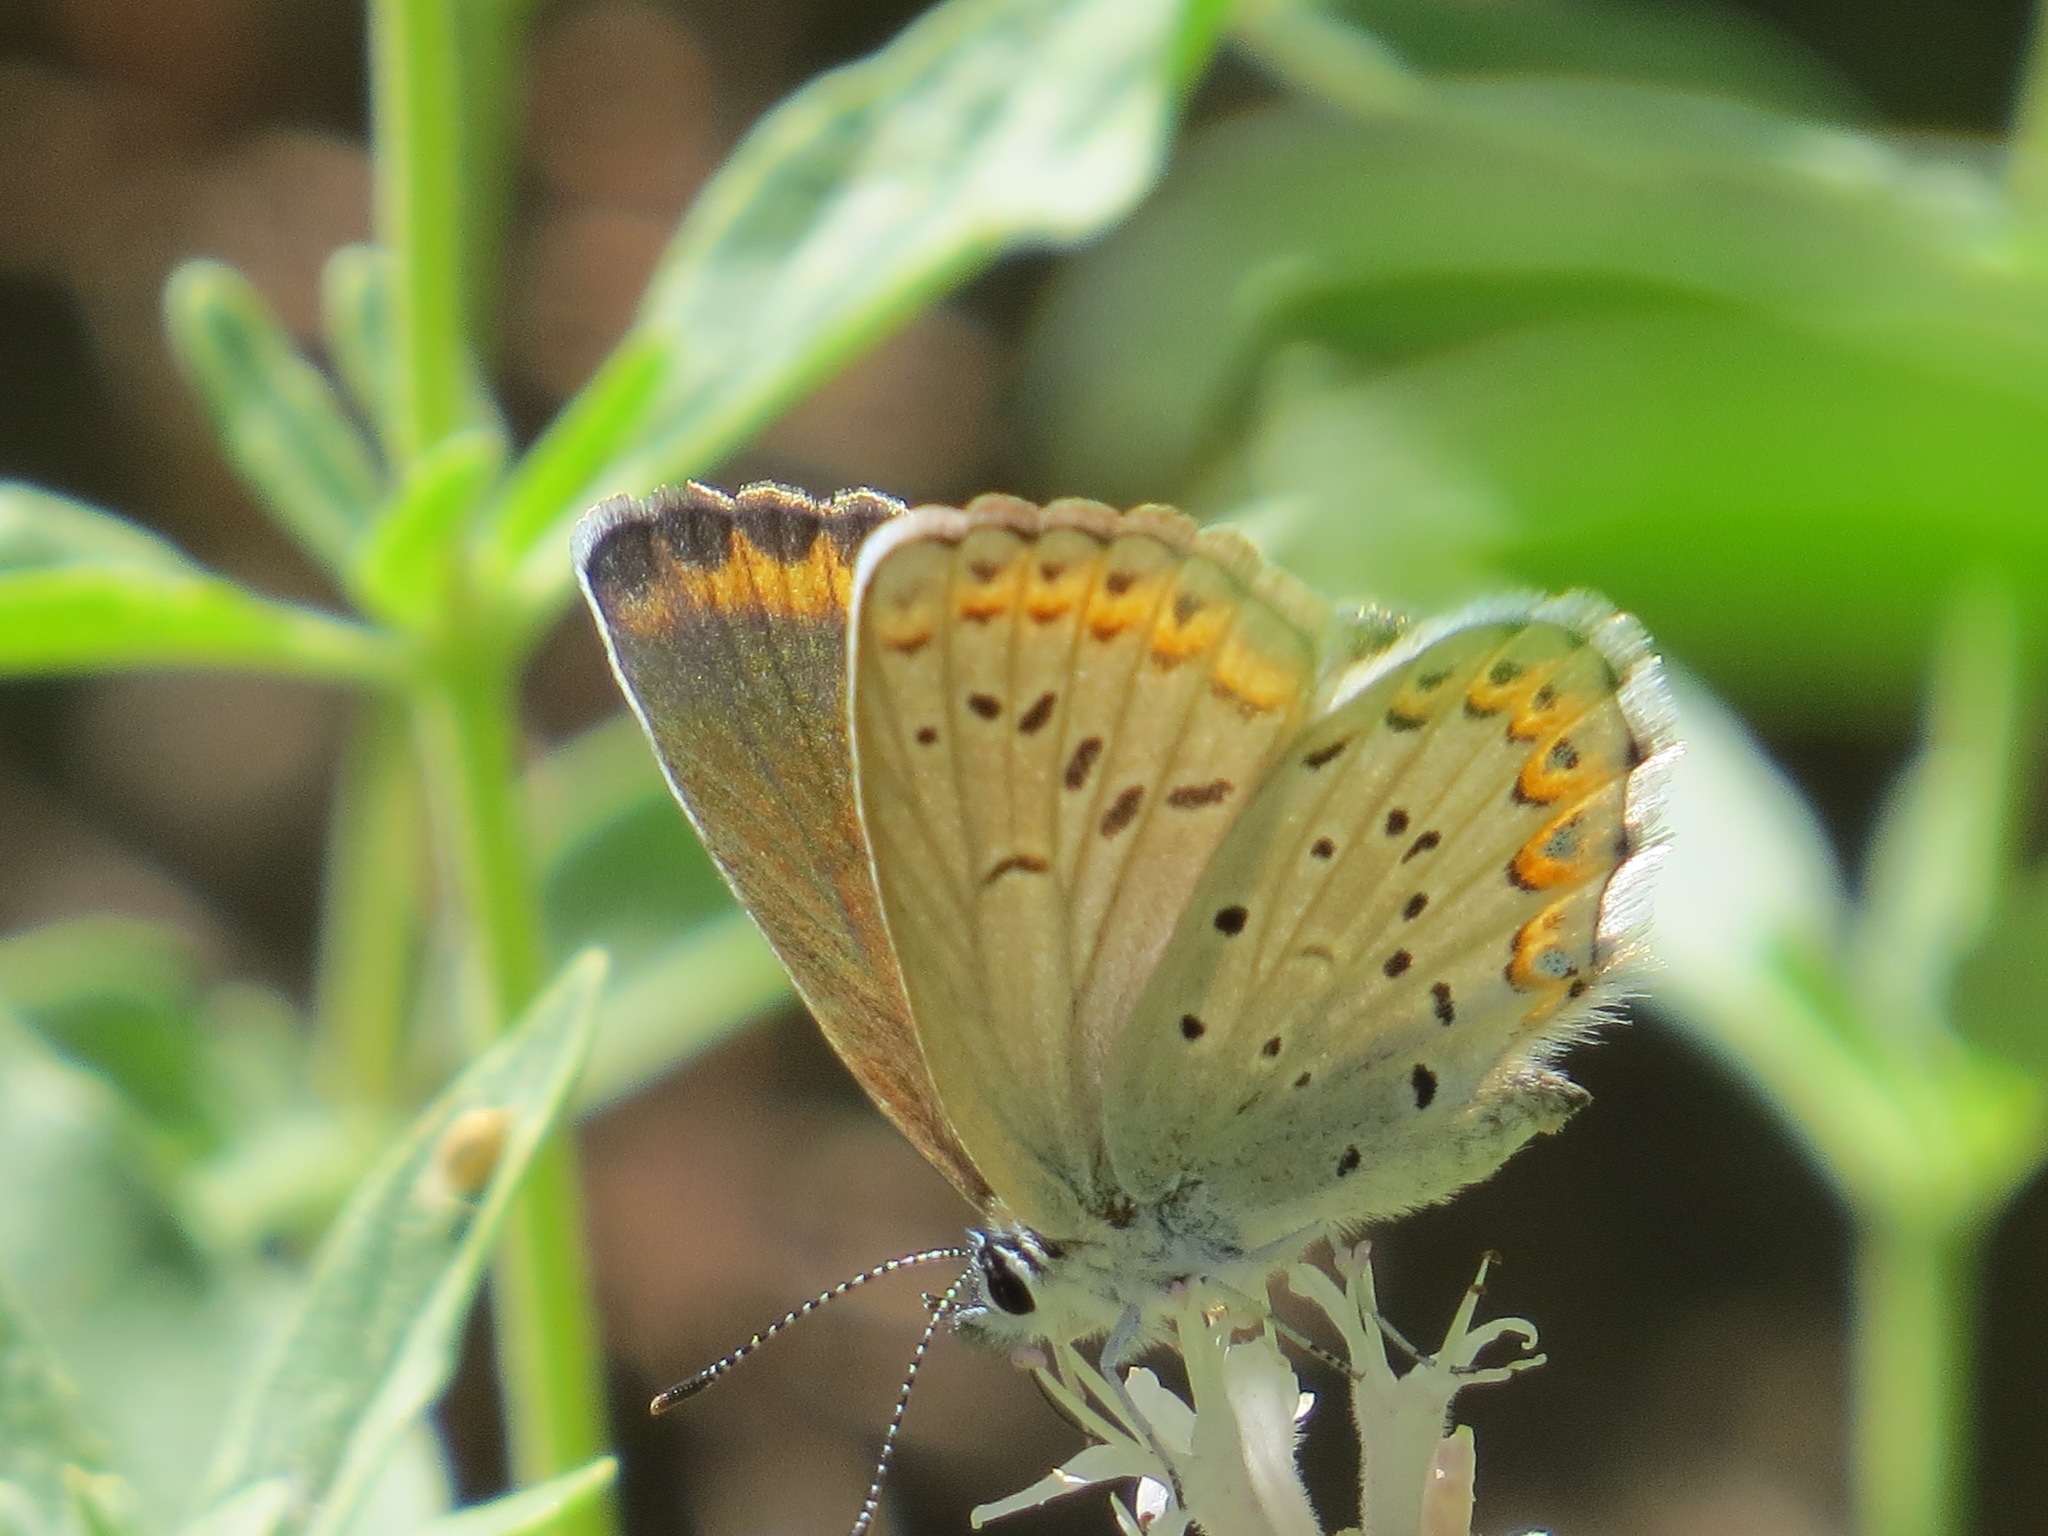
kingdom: Animalia
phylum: Arthropoda
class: Insecta
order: Lepidoptera
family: Lycaenidae
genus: Lycaeides
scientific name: Lycaeides anna
